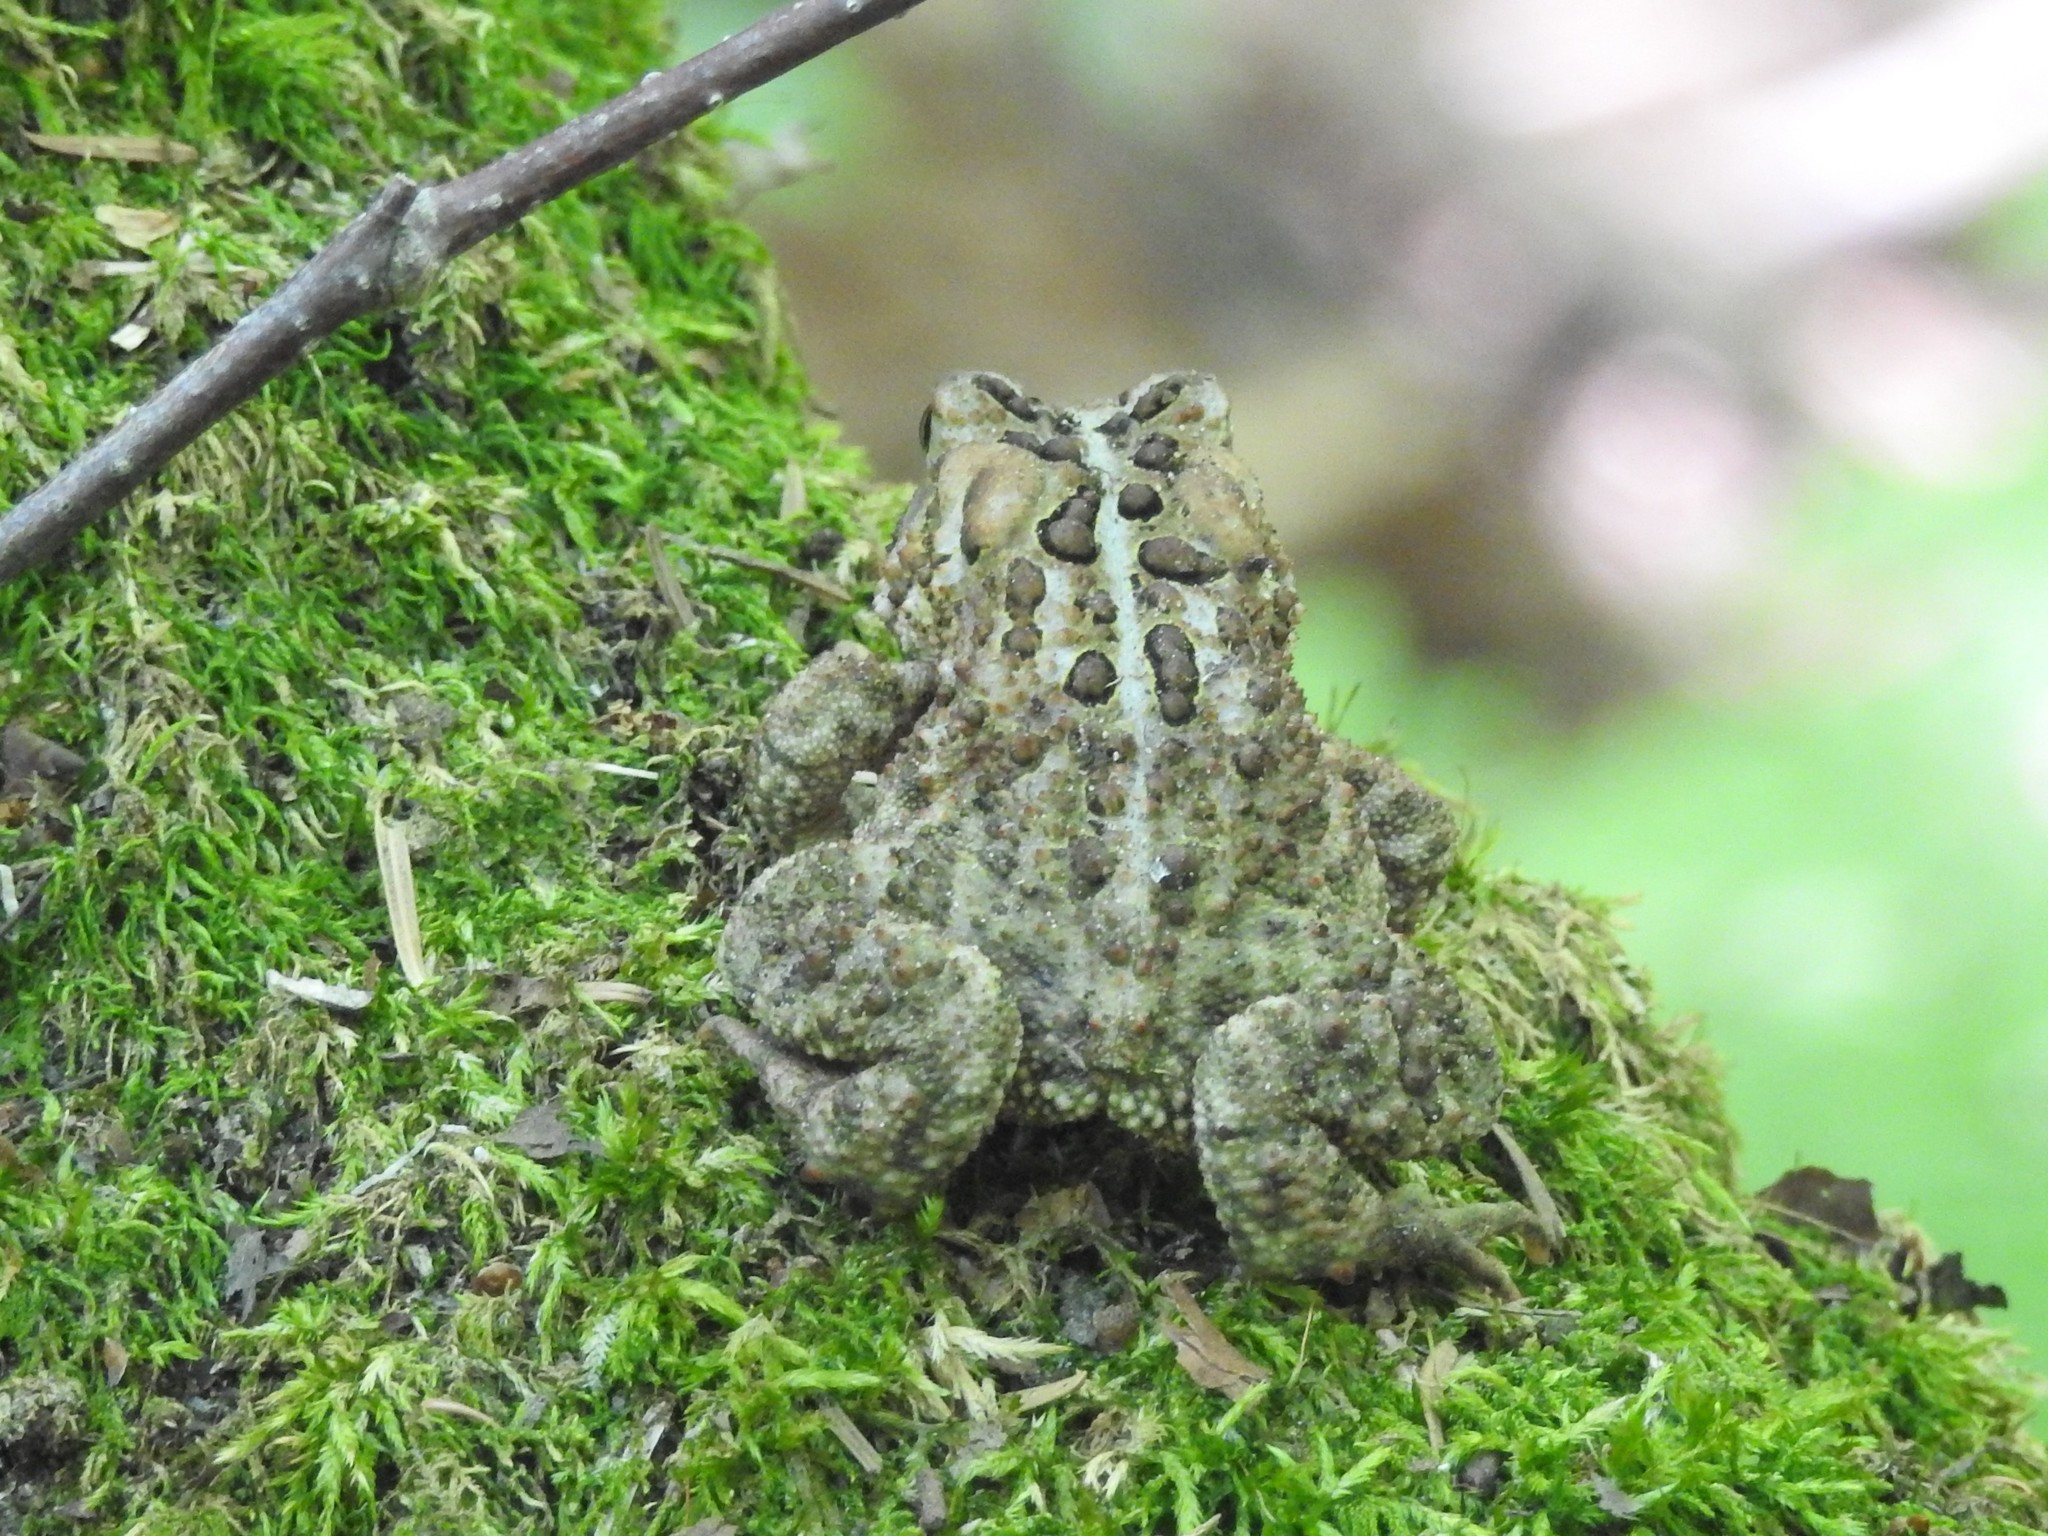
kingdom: Animalia
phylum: Chordata
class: Amphibia
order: Anura
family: Bufonidae
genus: Anaxyrus
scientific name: Anaxyrus americanus
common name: American toad
